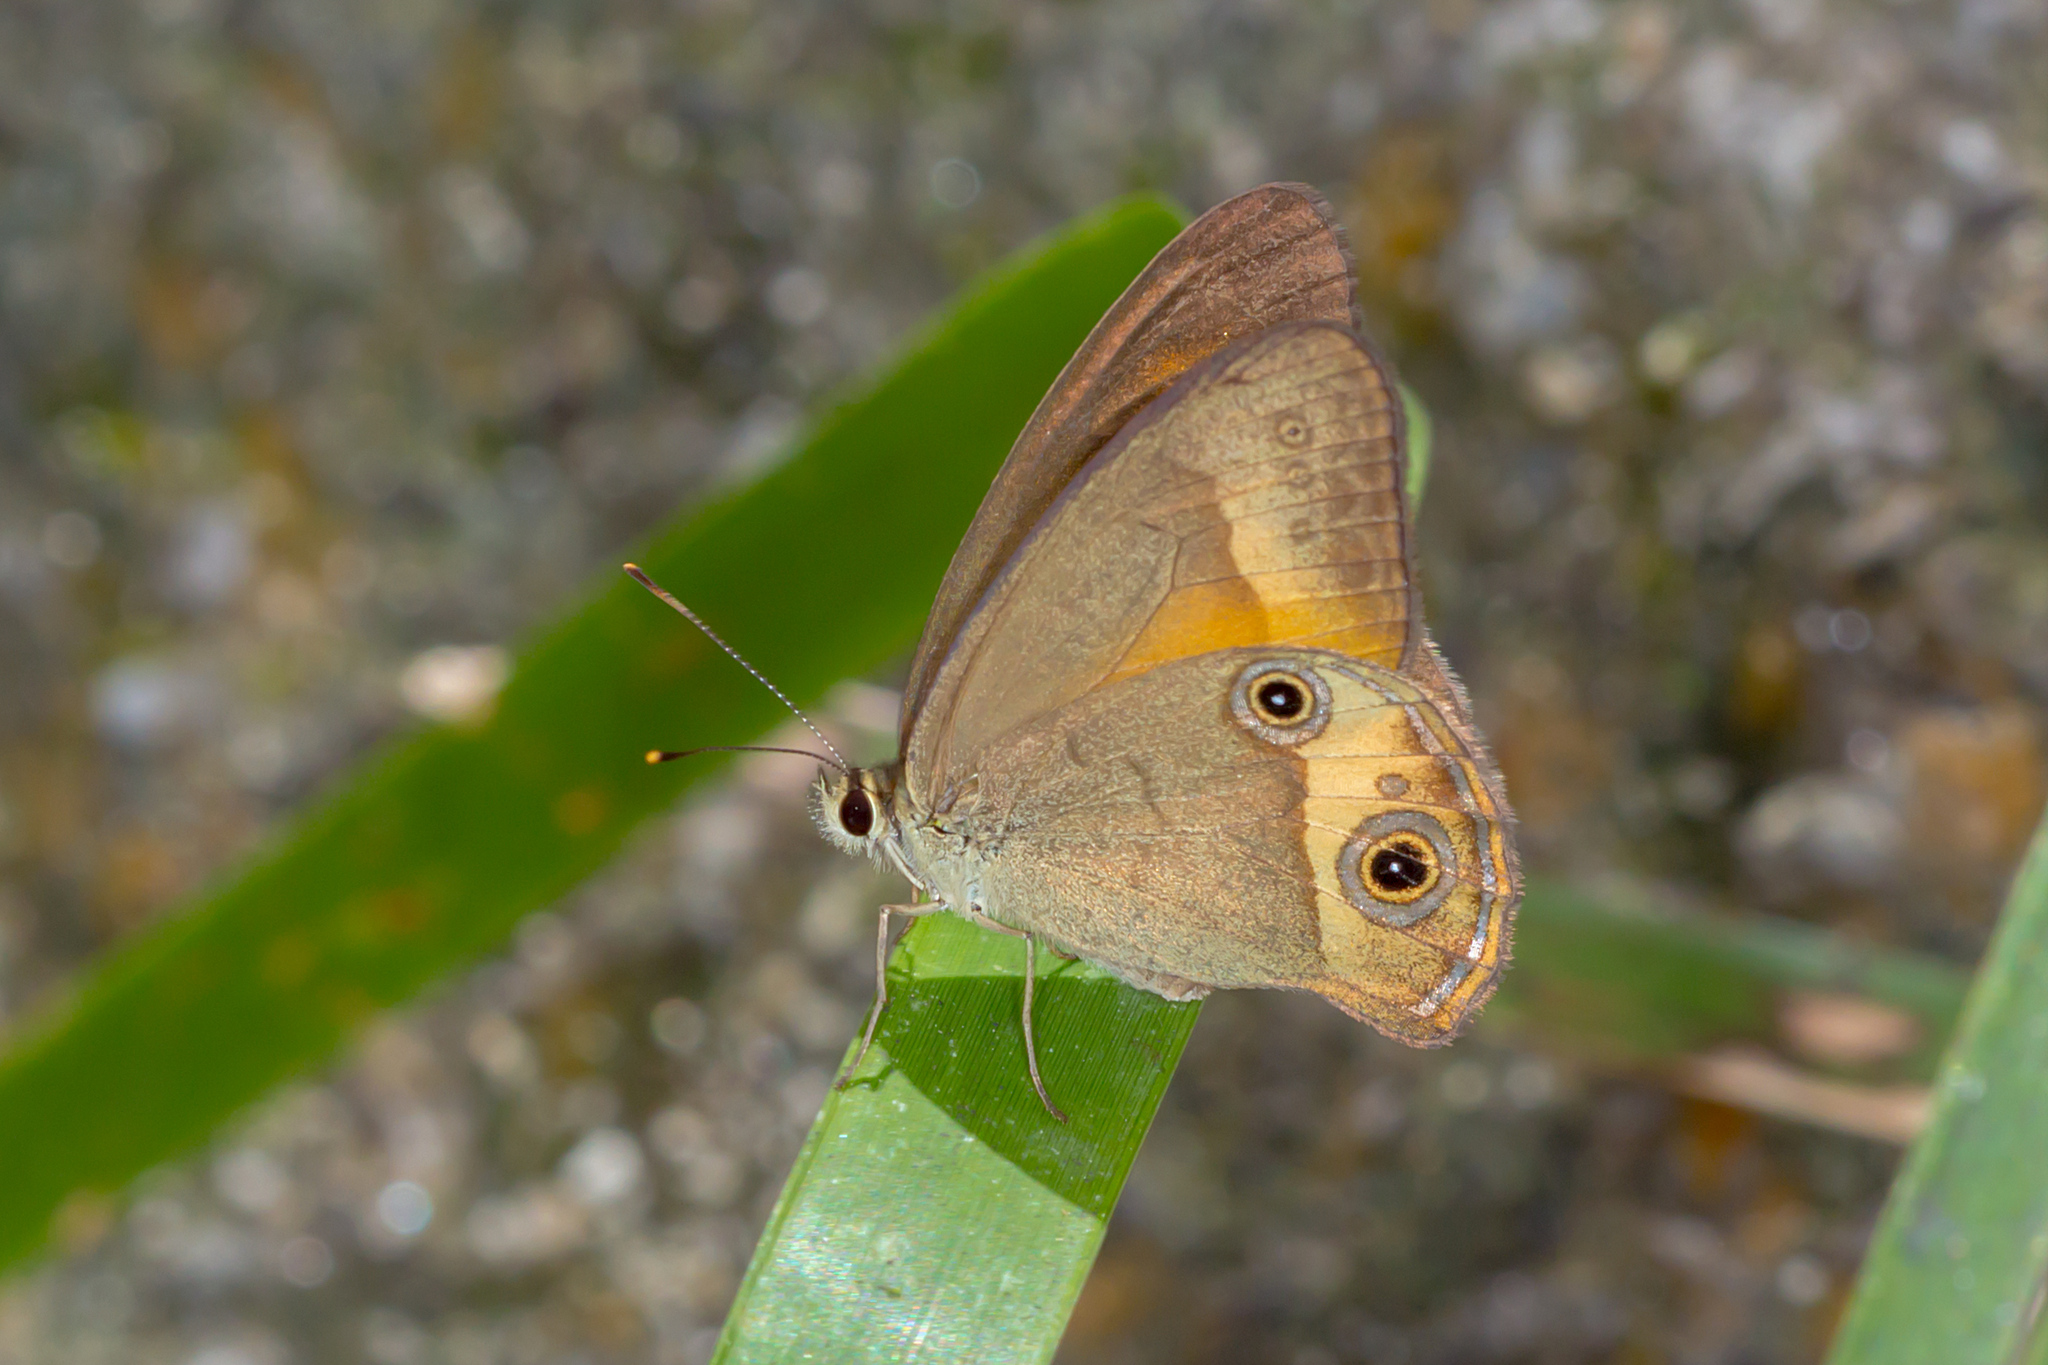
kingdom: Animalia
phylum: Arthropoda
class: Insecta
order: Lepidoptera
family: Nymphalidae
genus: Hypocysta
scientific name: Hypocysta irius
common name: Orange-streaked ringlet
